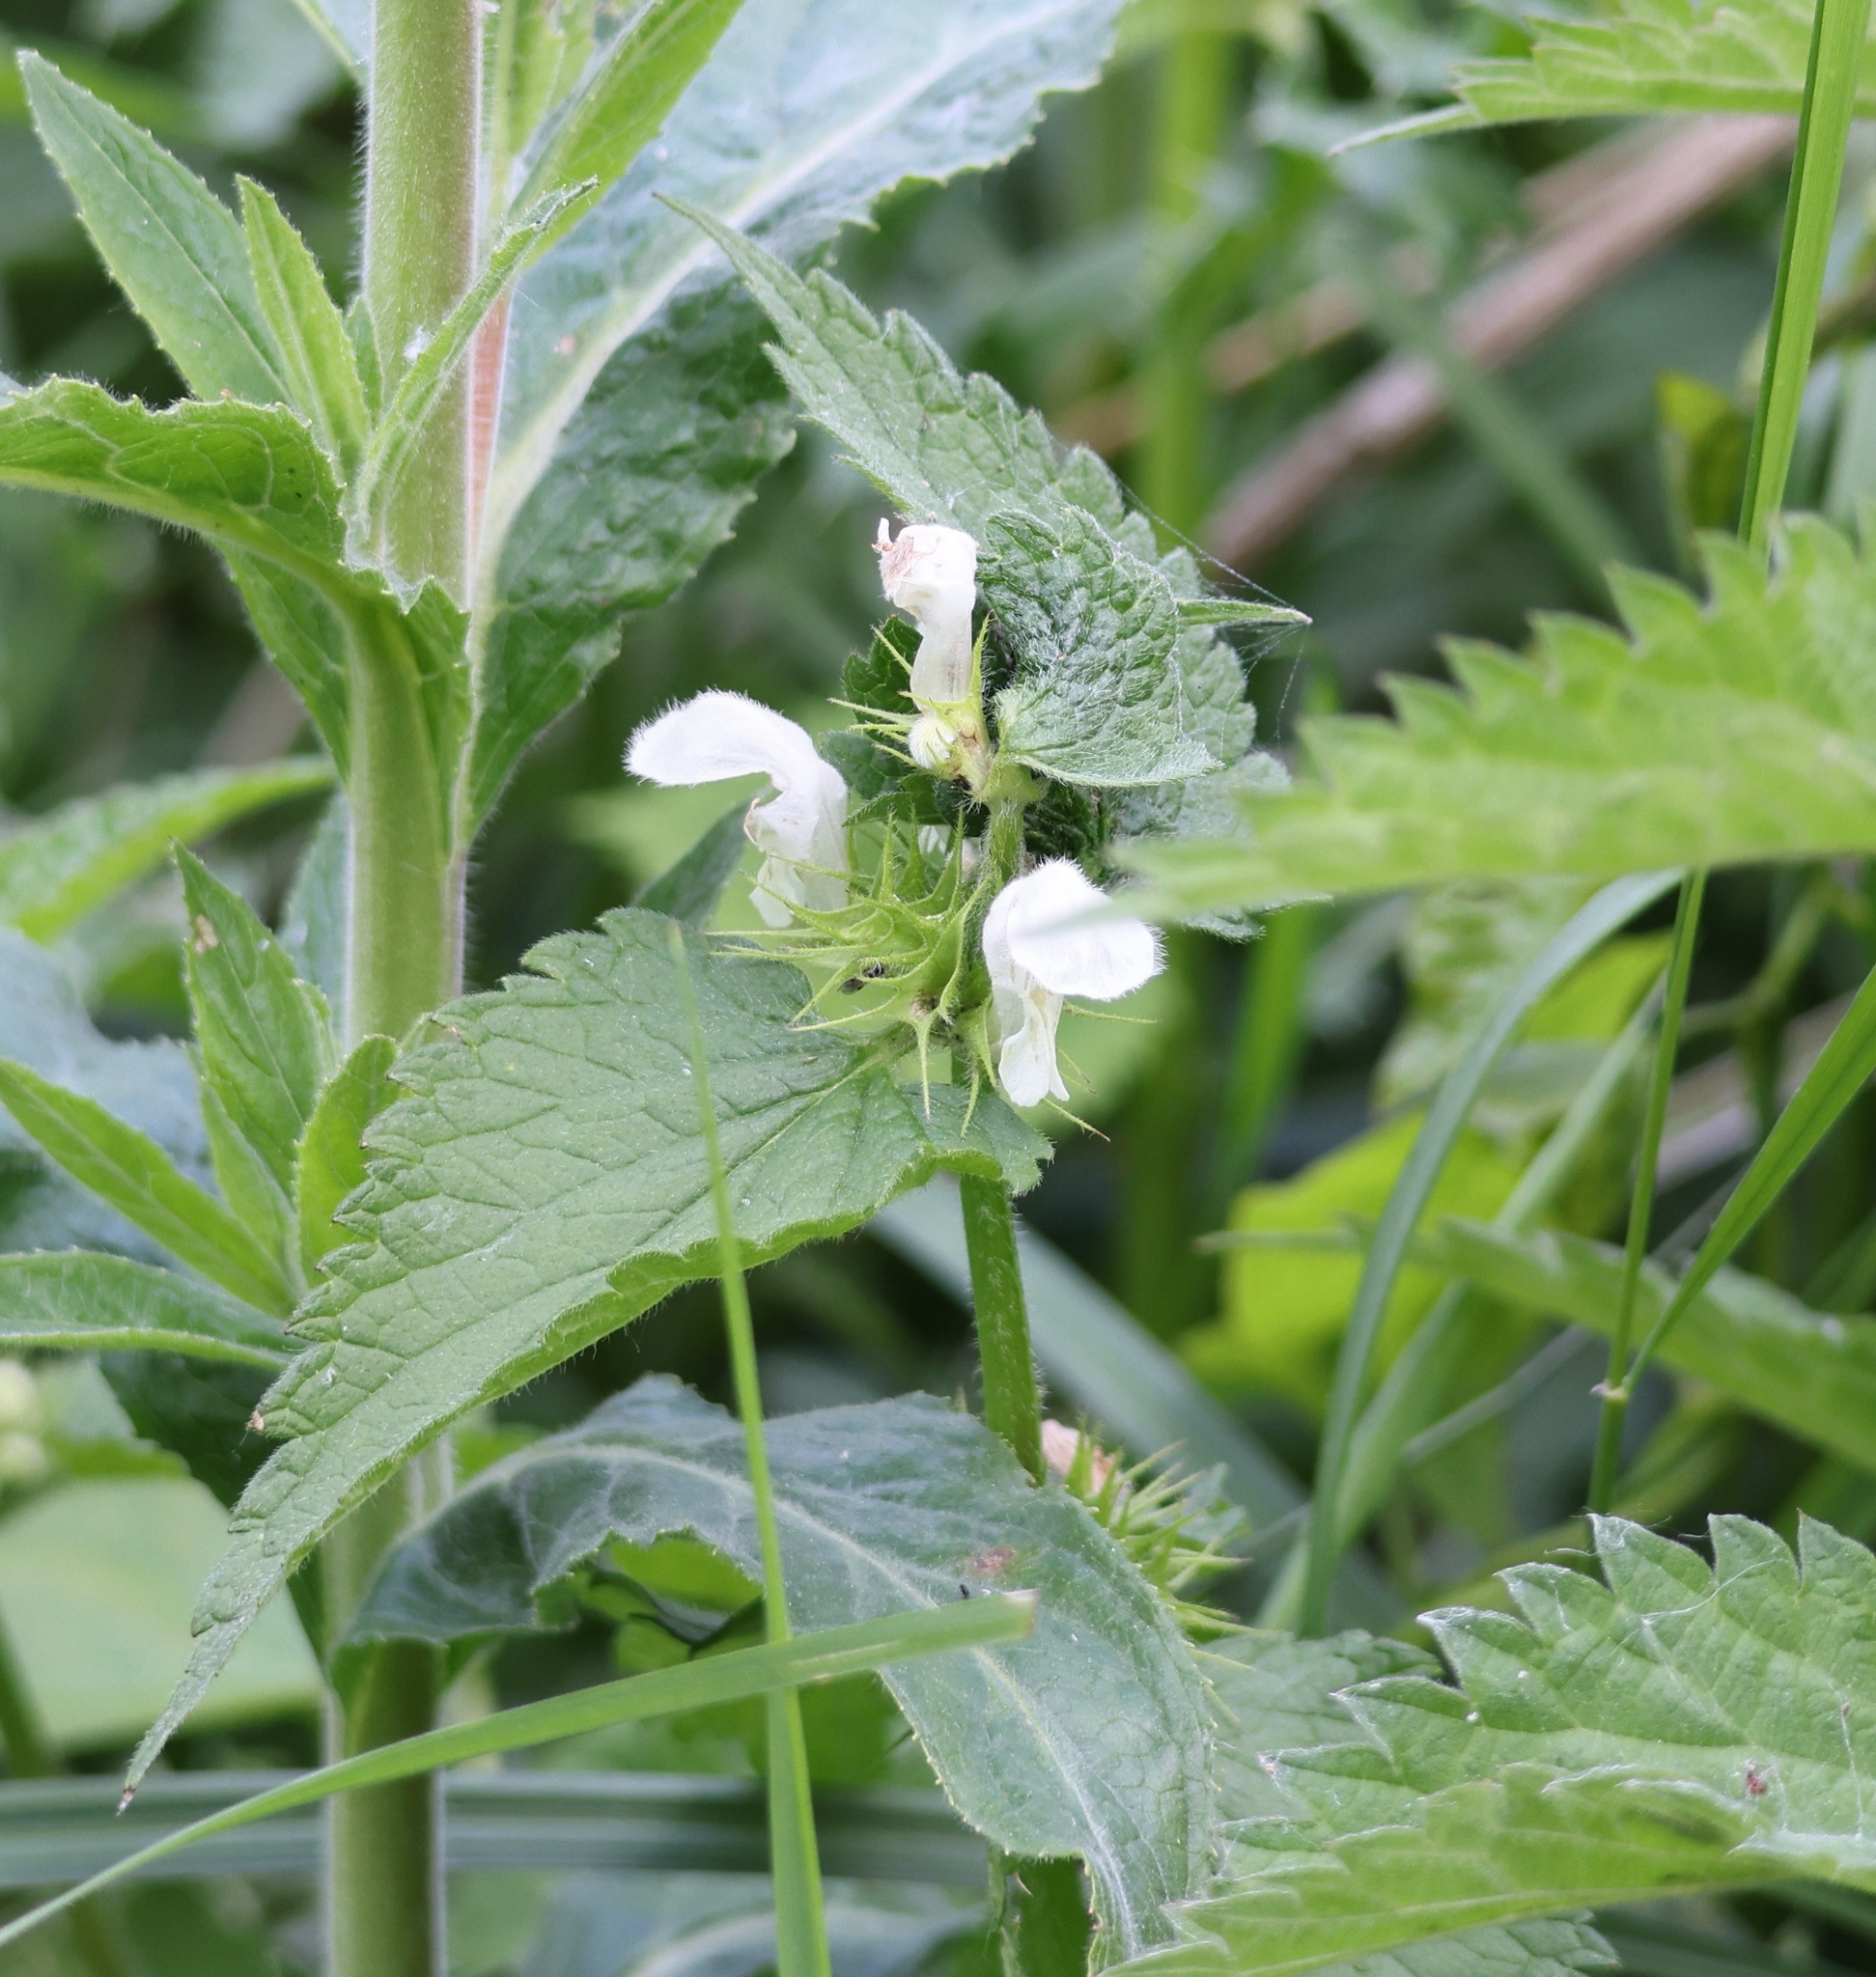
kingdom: Plantae
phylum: Tracheophyta
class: Magnoliopsida
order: Lamiales
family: Lamiaceae
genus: Lamium
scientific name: Lamium album
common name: White dead-nettle
